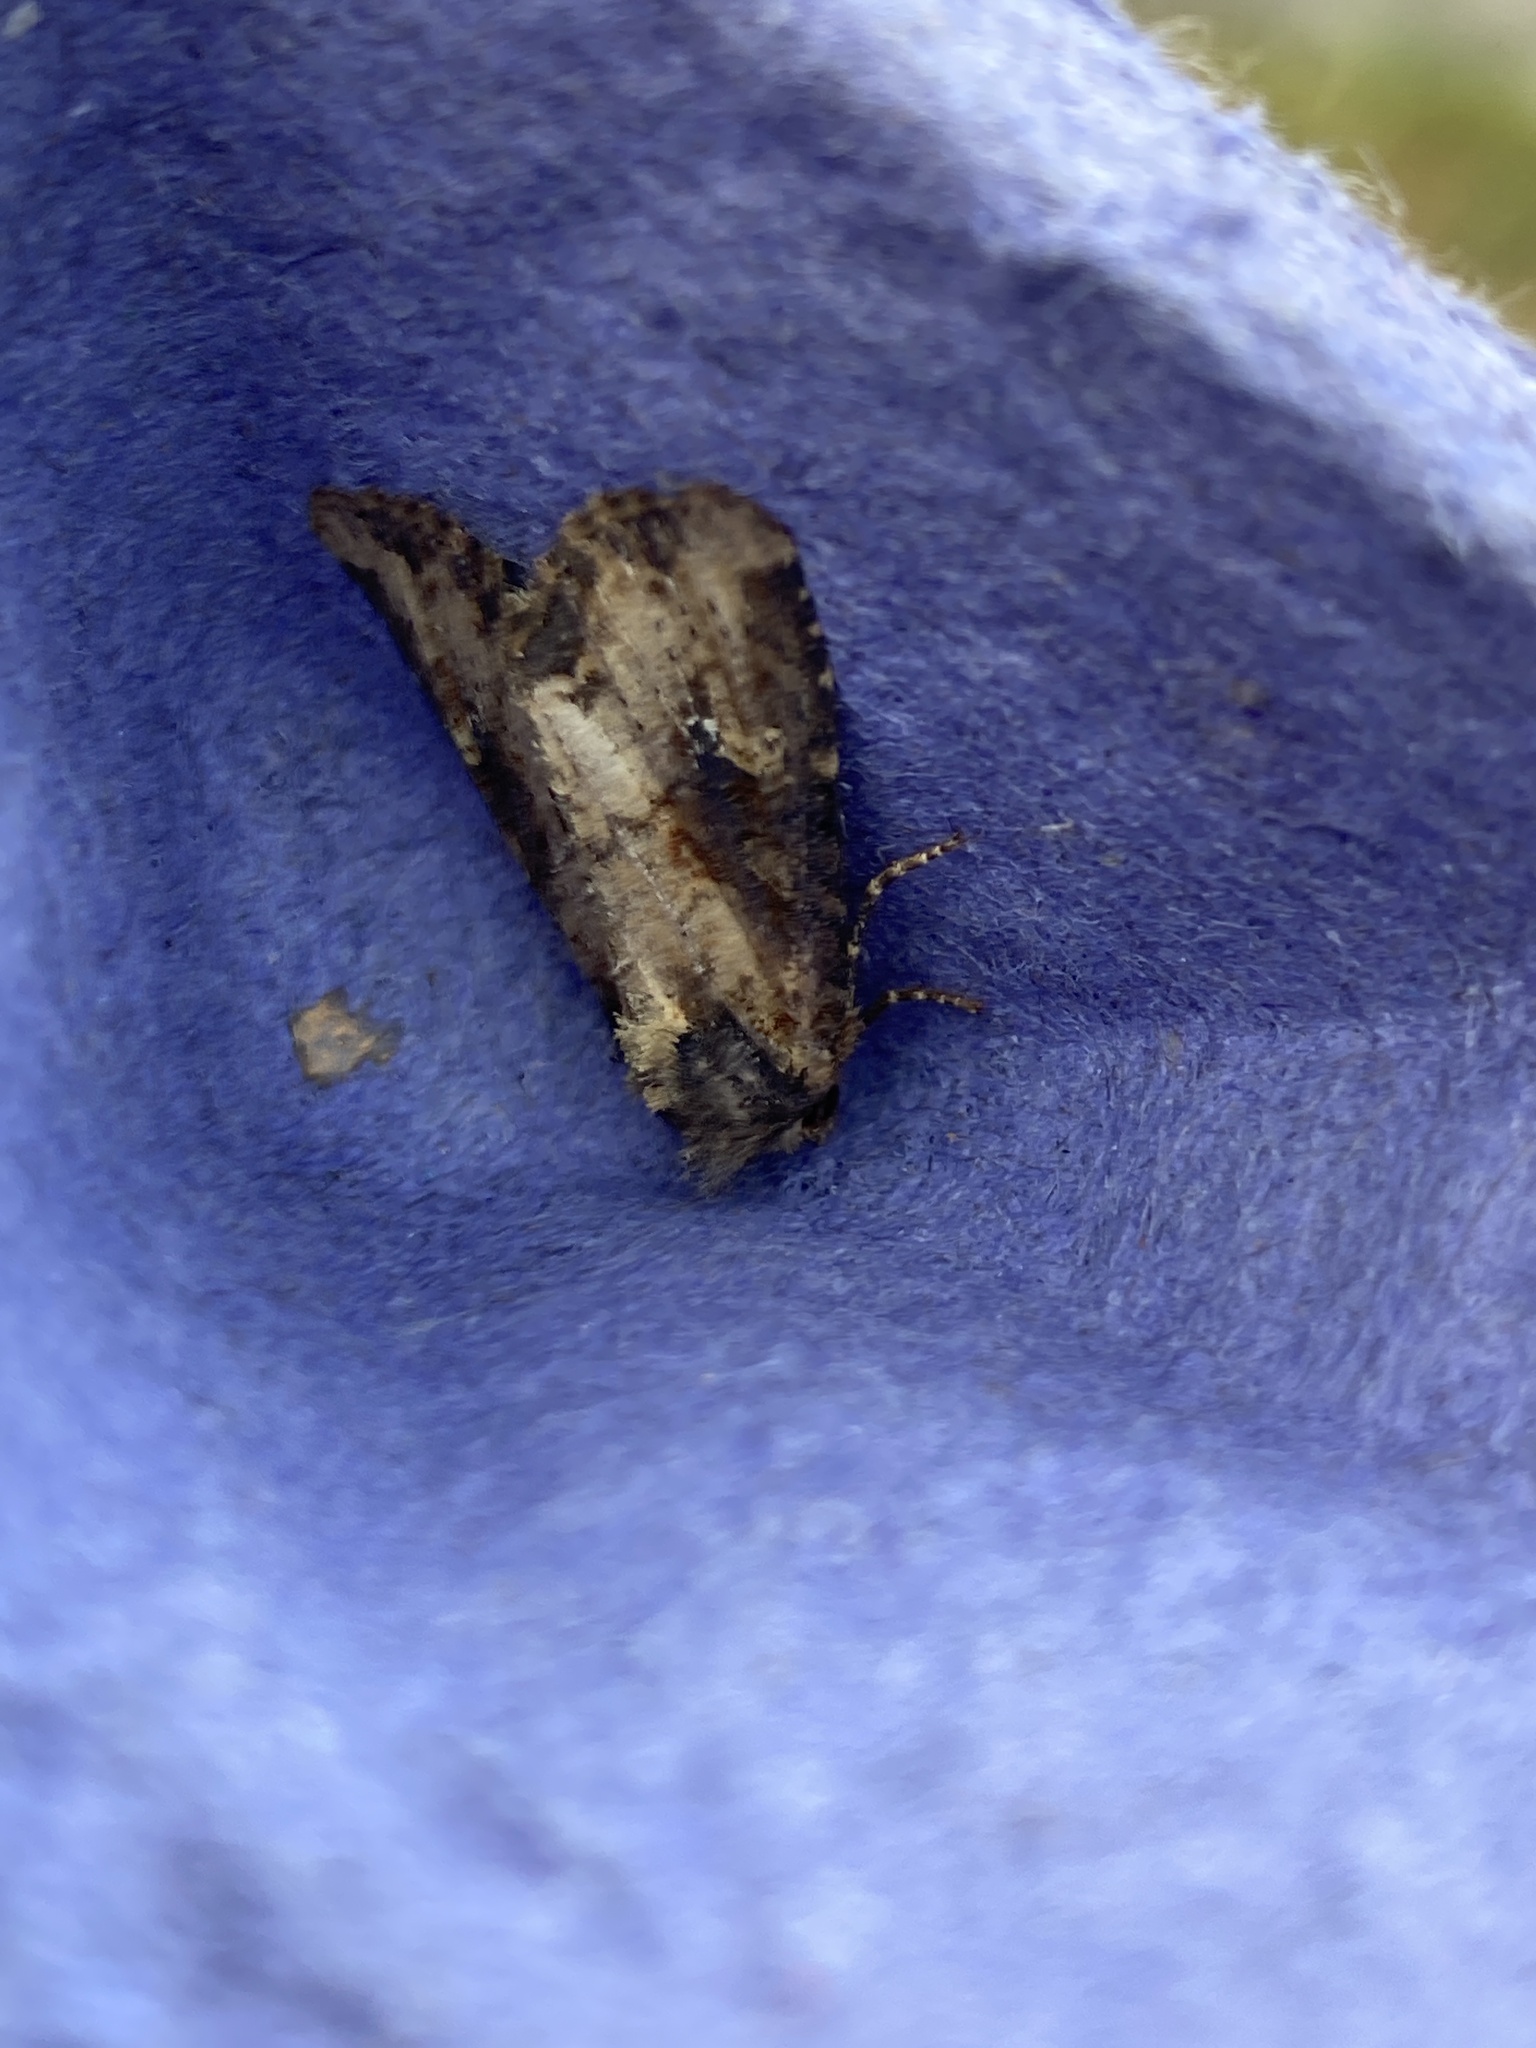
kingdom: Animalia
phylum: Arthropoda
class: Insecta
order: Lepidoptera
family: Noctuidae
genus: Mesapamea
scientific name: Mesapamea
